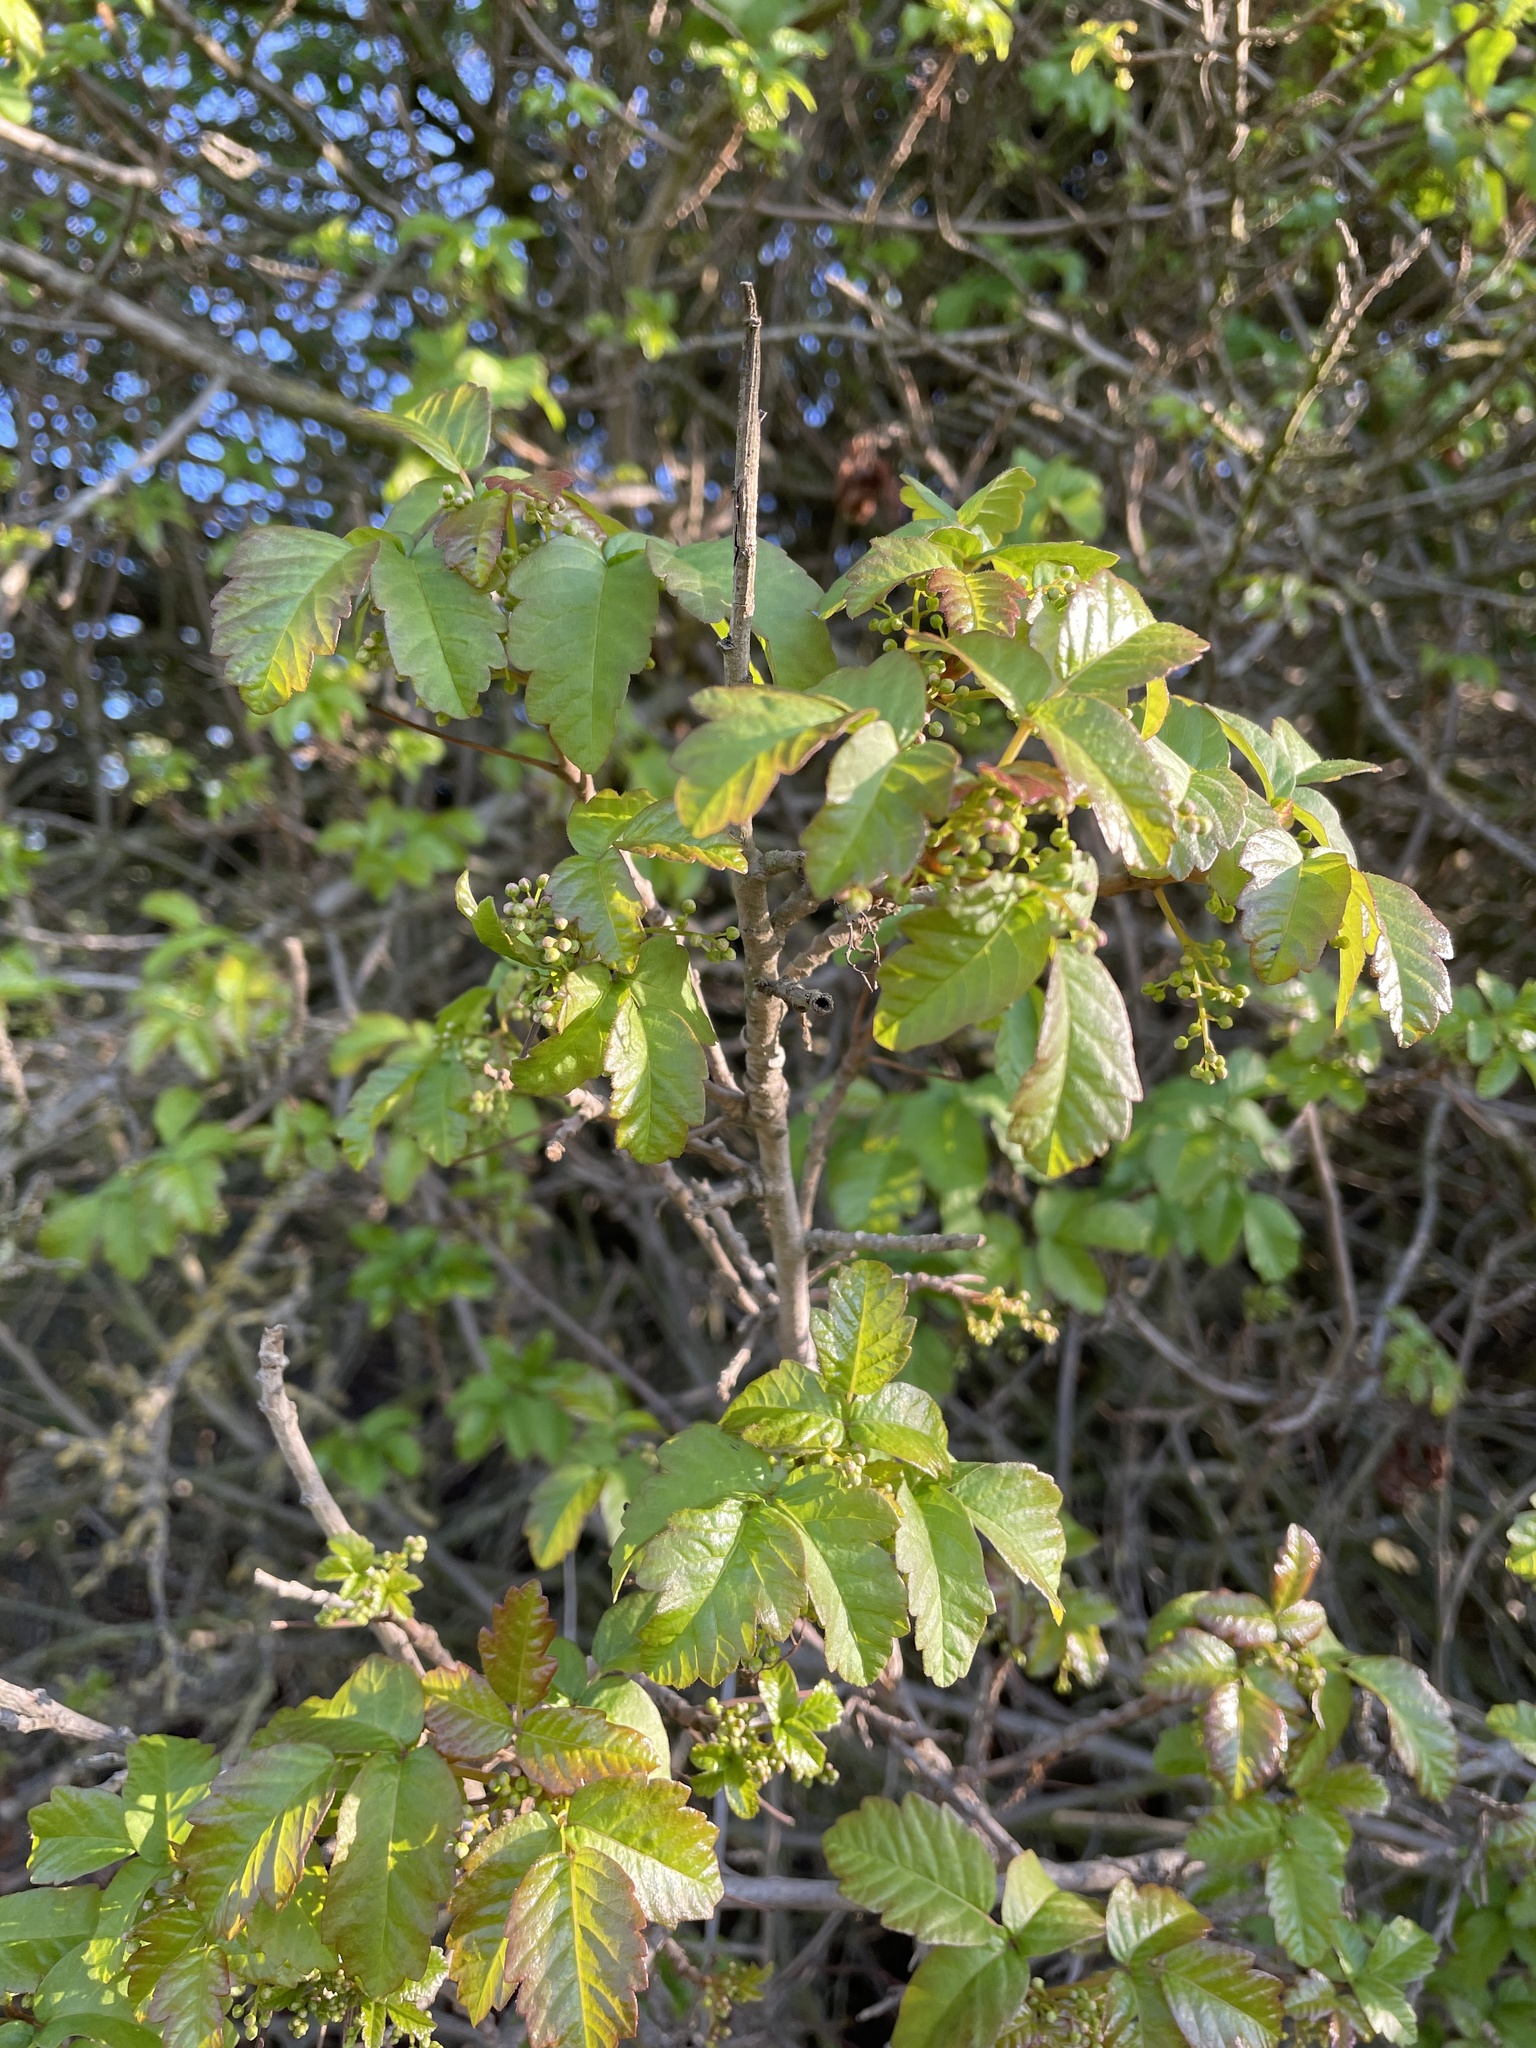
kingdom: Plantae
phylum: Tracheophyta
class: Magnoliopsida
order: Sapindales
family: Anacardiaceae
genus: Toxicodendron
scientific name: Toxicodendron diversilobum
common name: Pacific poison-oak
